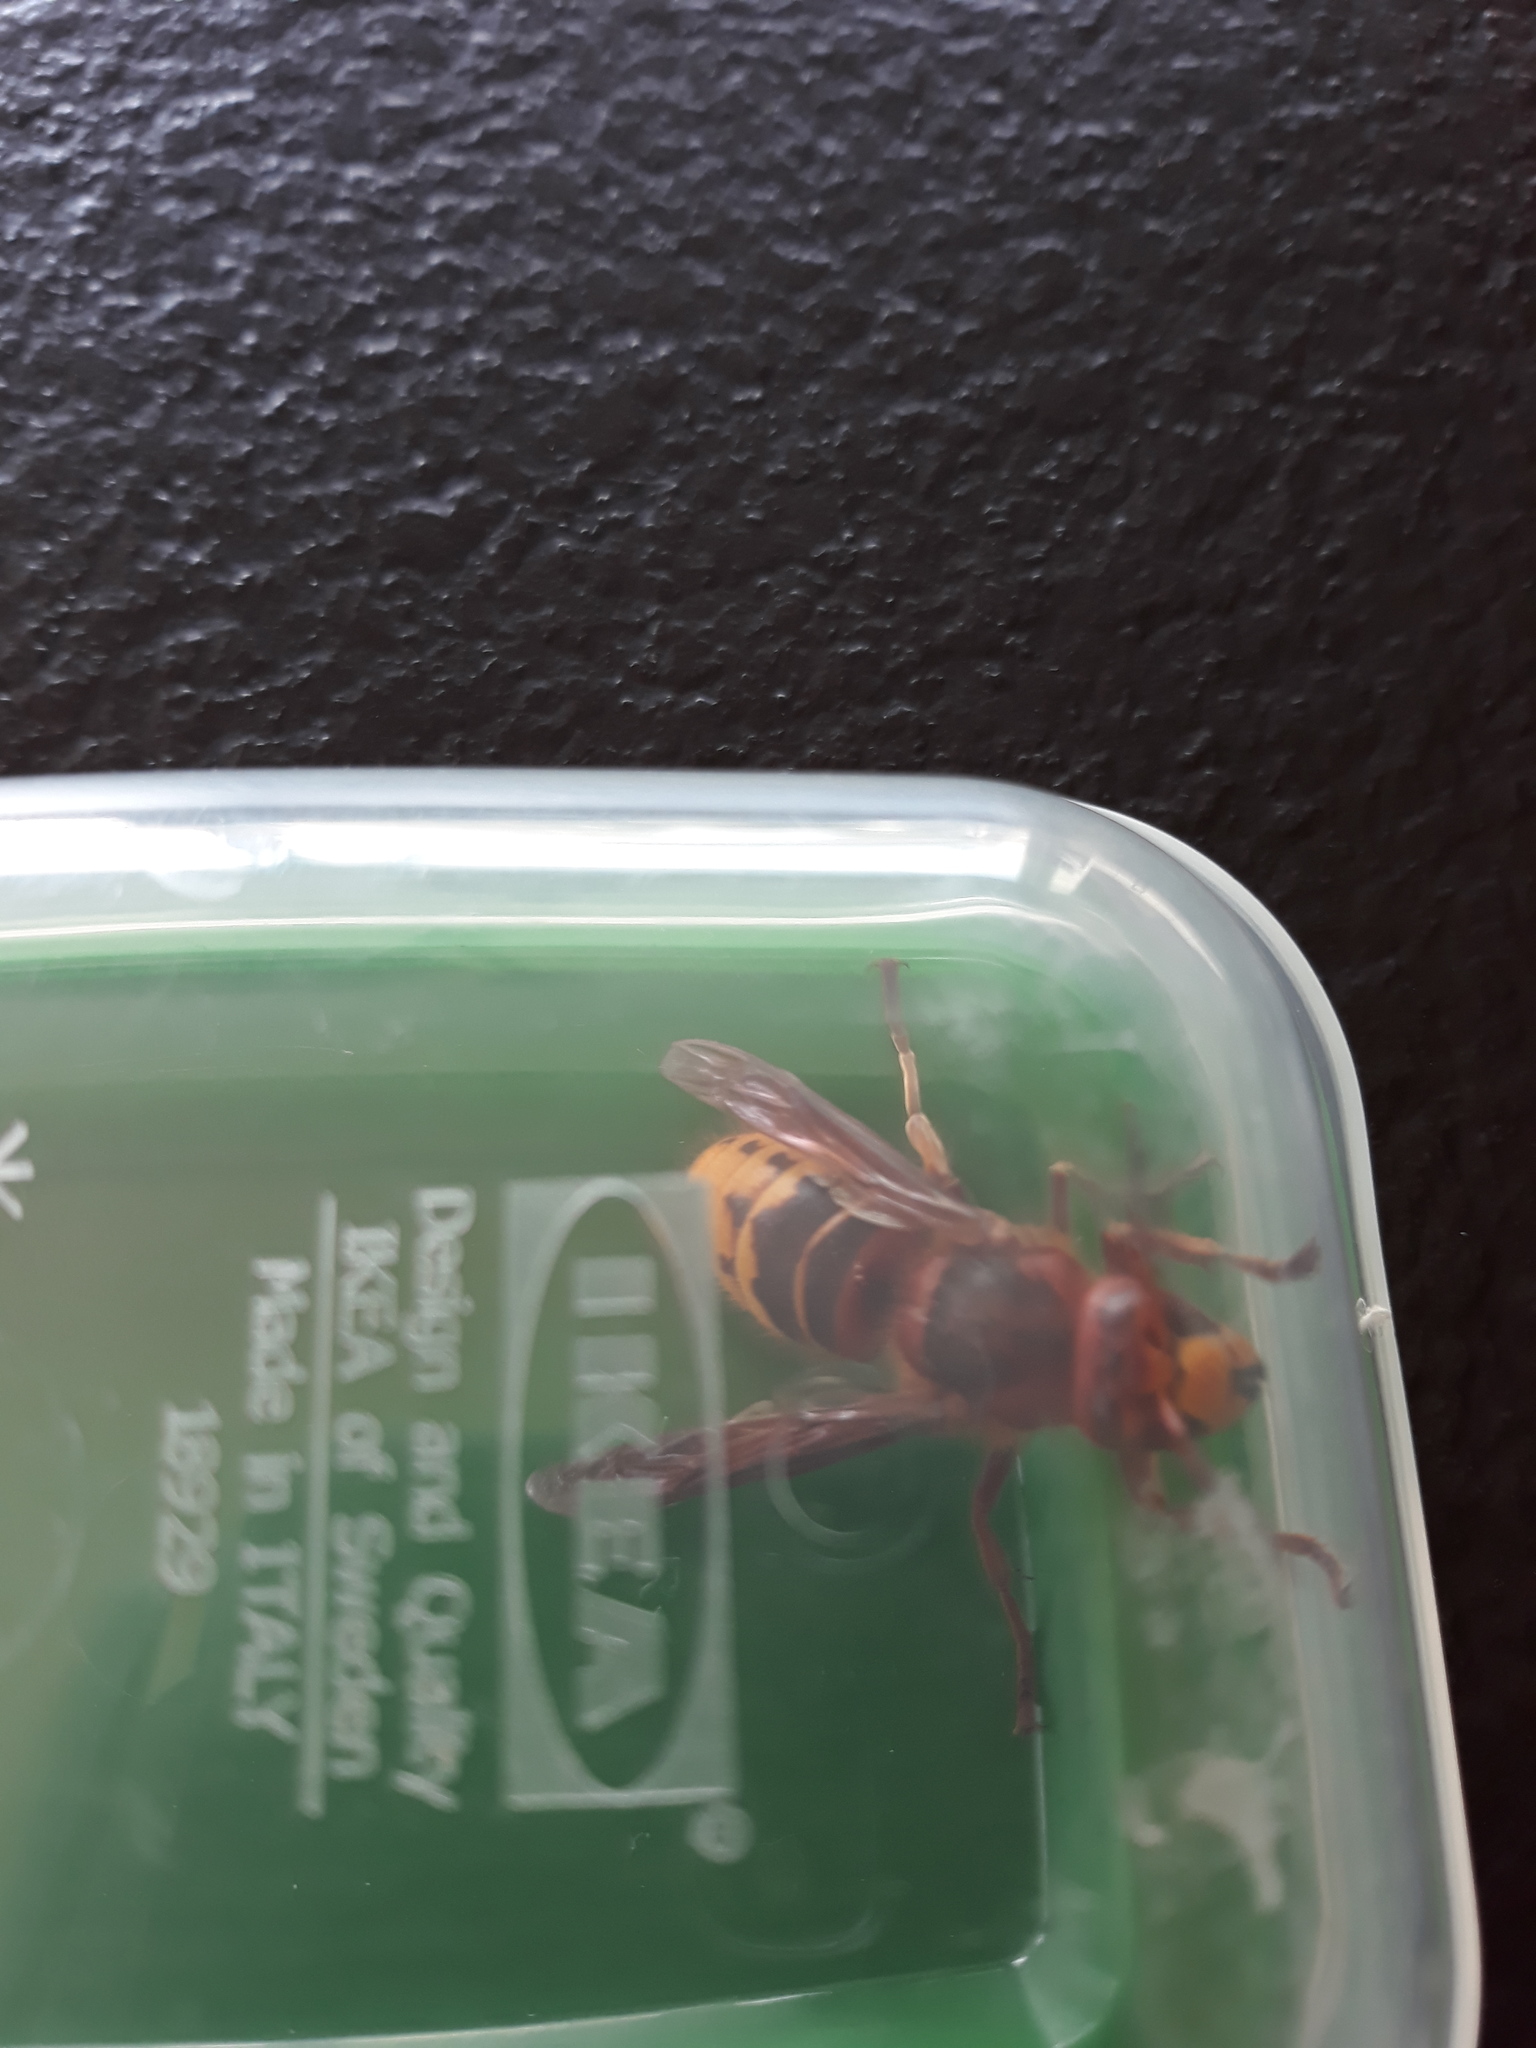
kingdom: Animalia
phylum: Arthropoda
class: Insecta
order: Hymenoptera
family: Vespidae
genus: Vespa
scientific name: Vespa crabro
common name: Hornet
